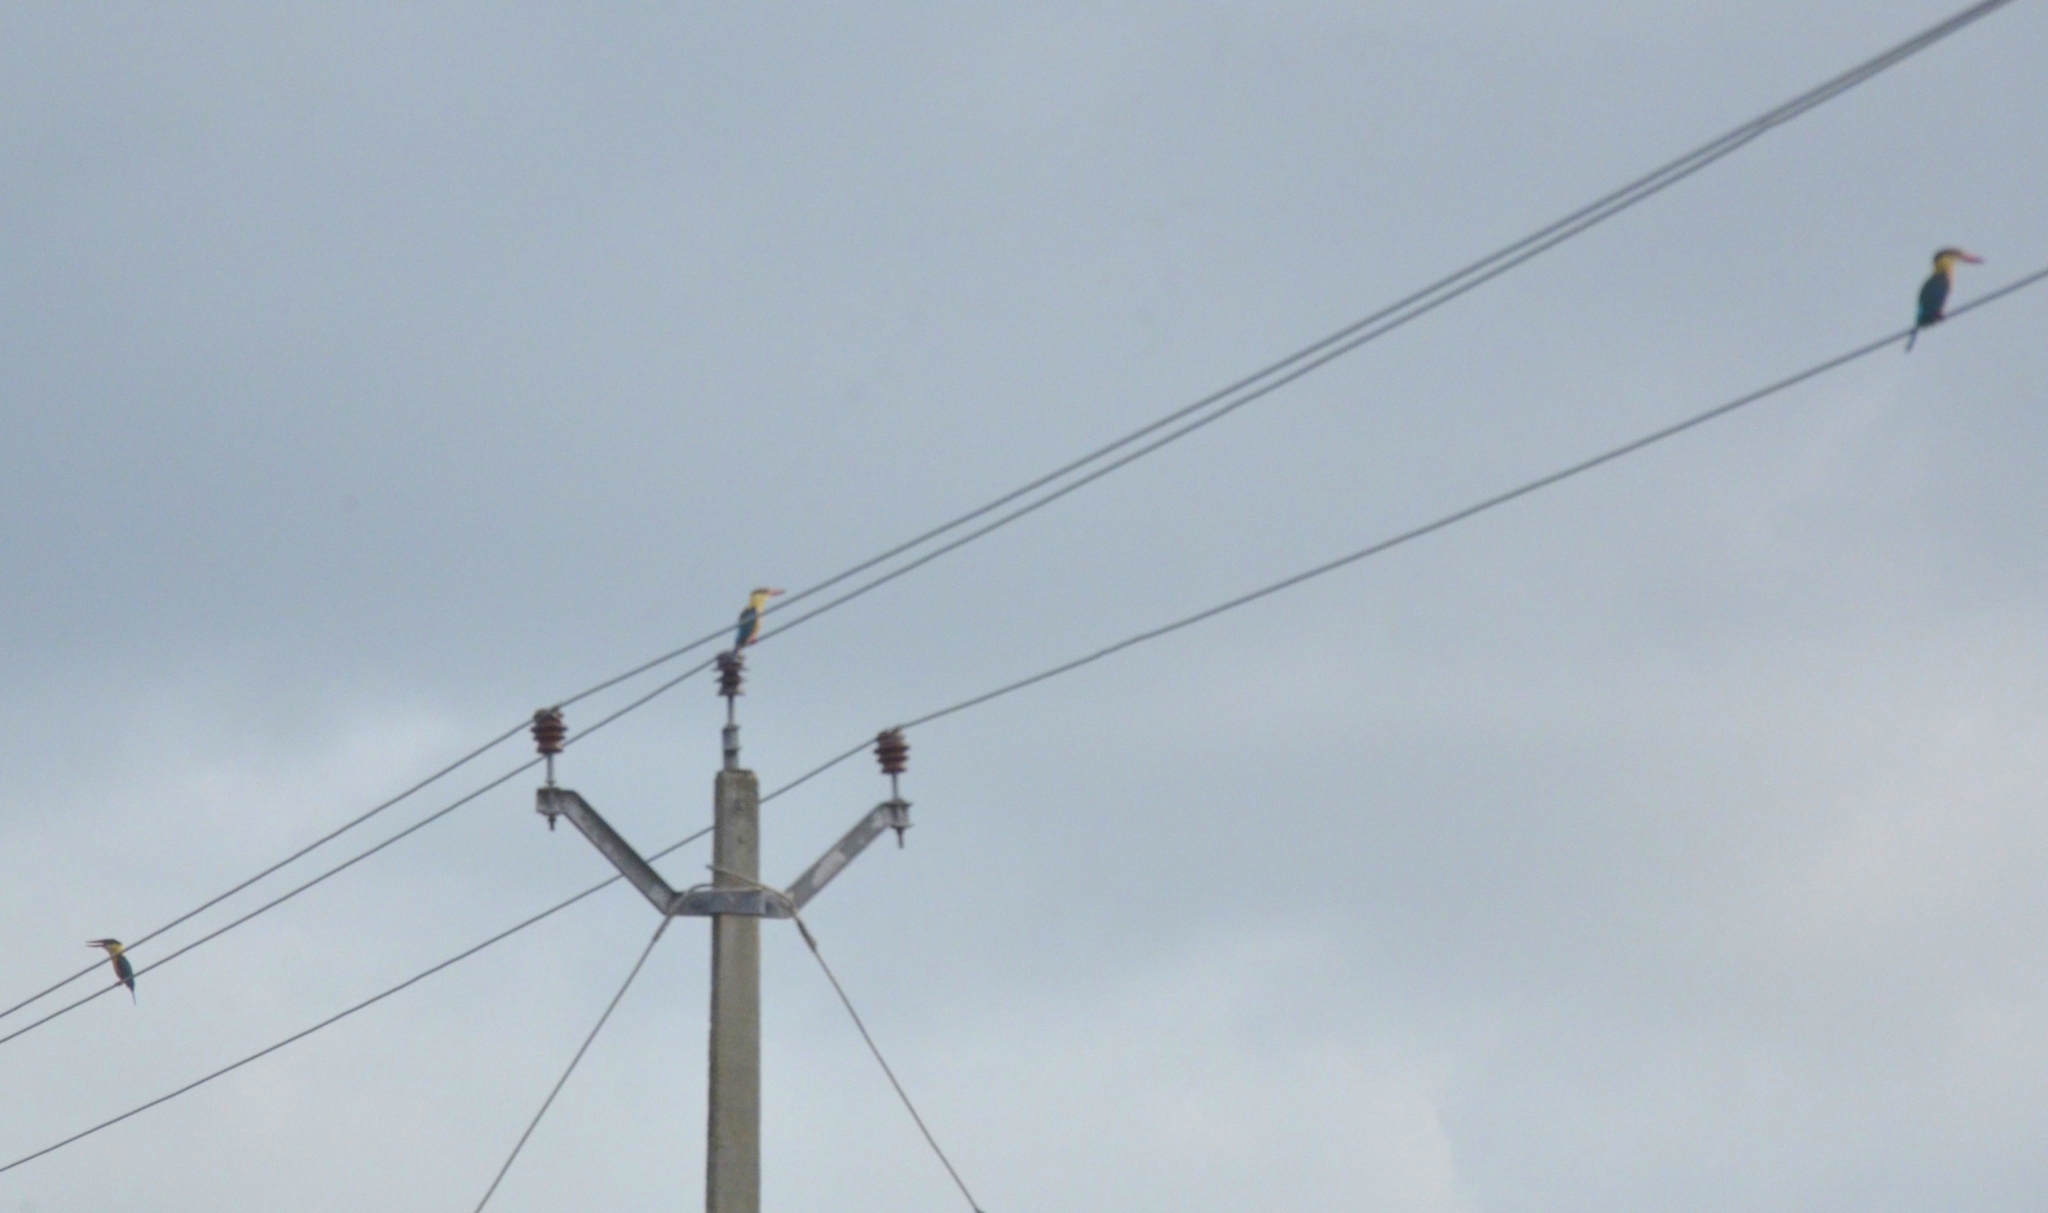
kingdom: Animalia
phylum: Chordata
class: Aves
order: Coraciiformes
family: Alcedinidae
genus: Pelargopsis
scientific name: Pelargopsis capensis
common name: Stork-billed kingfisher
